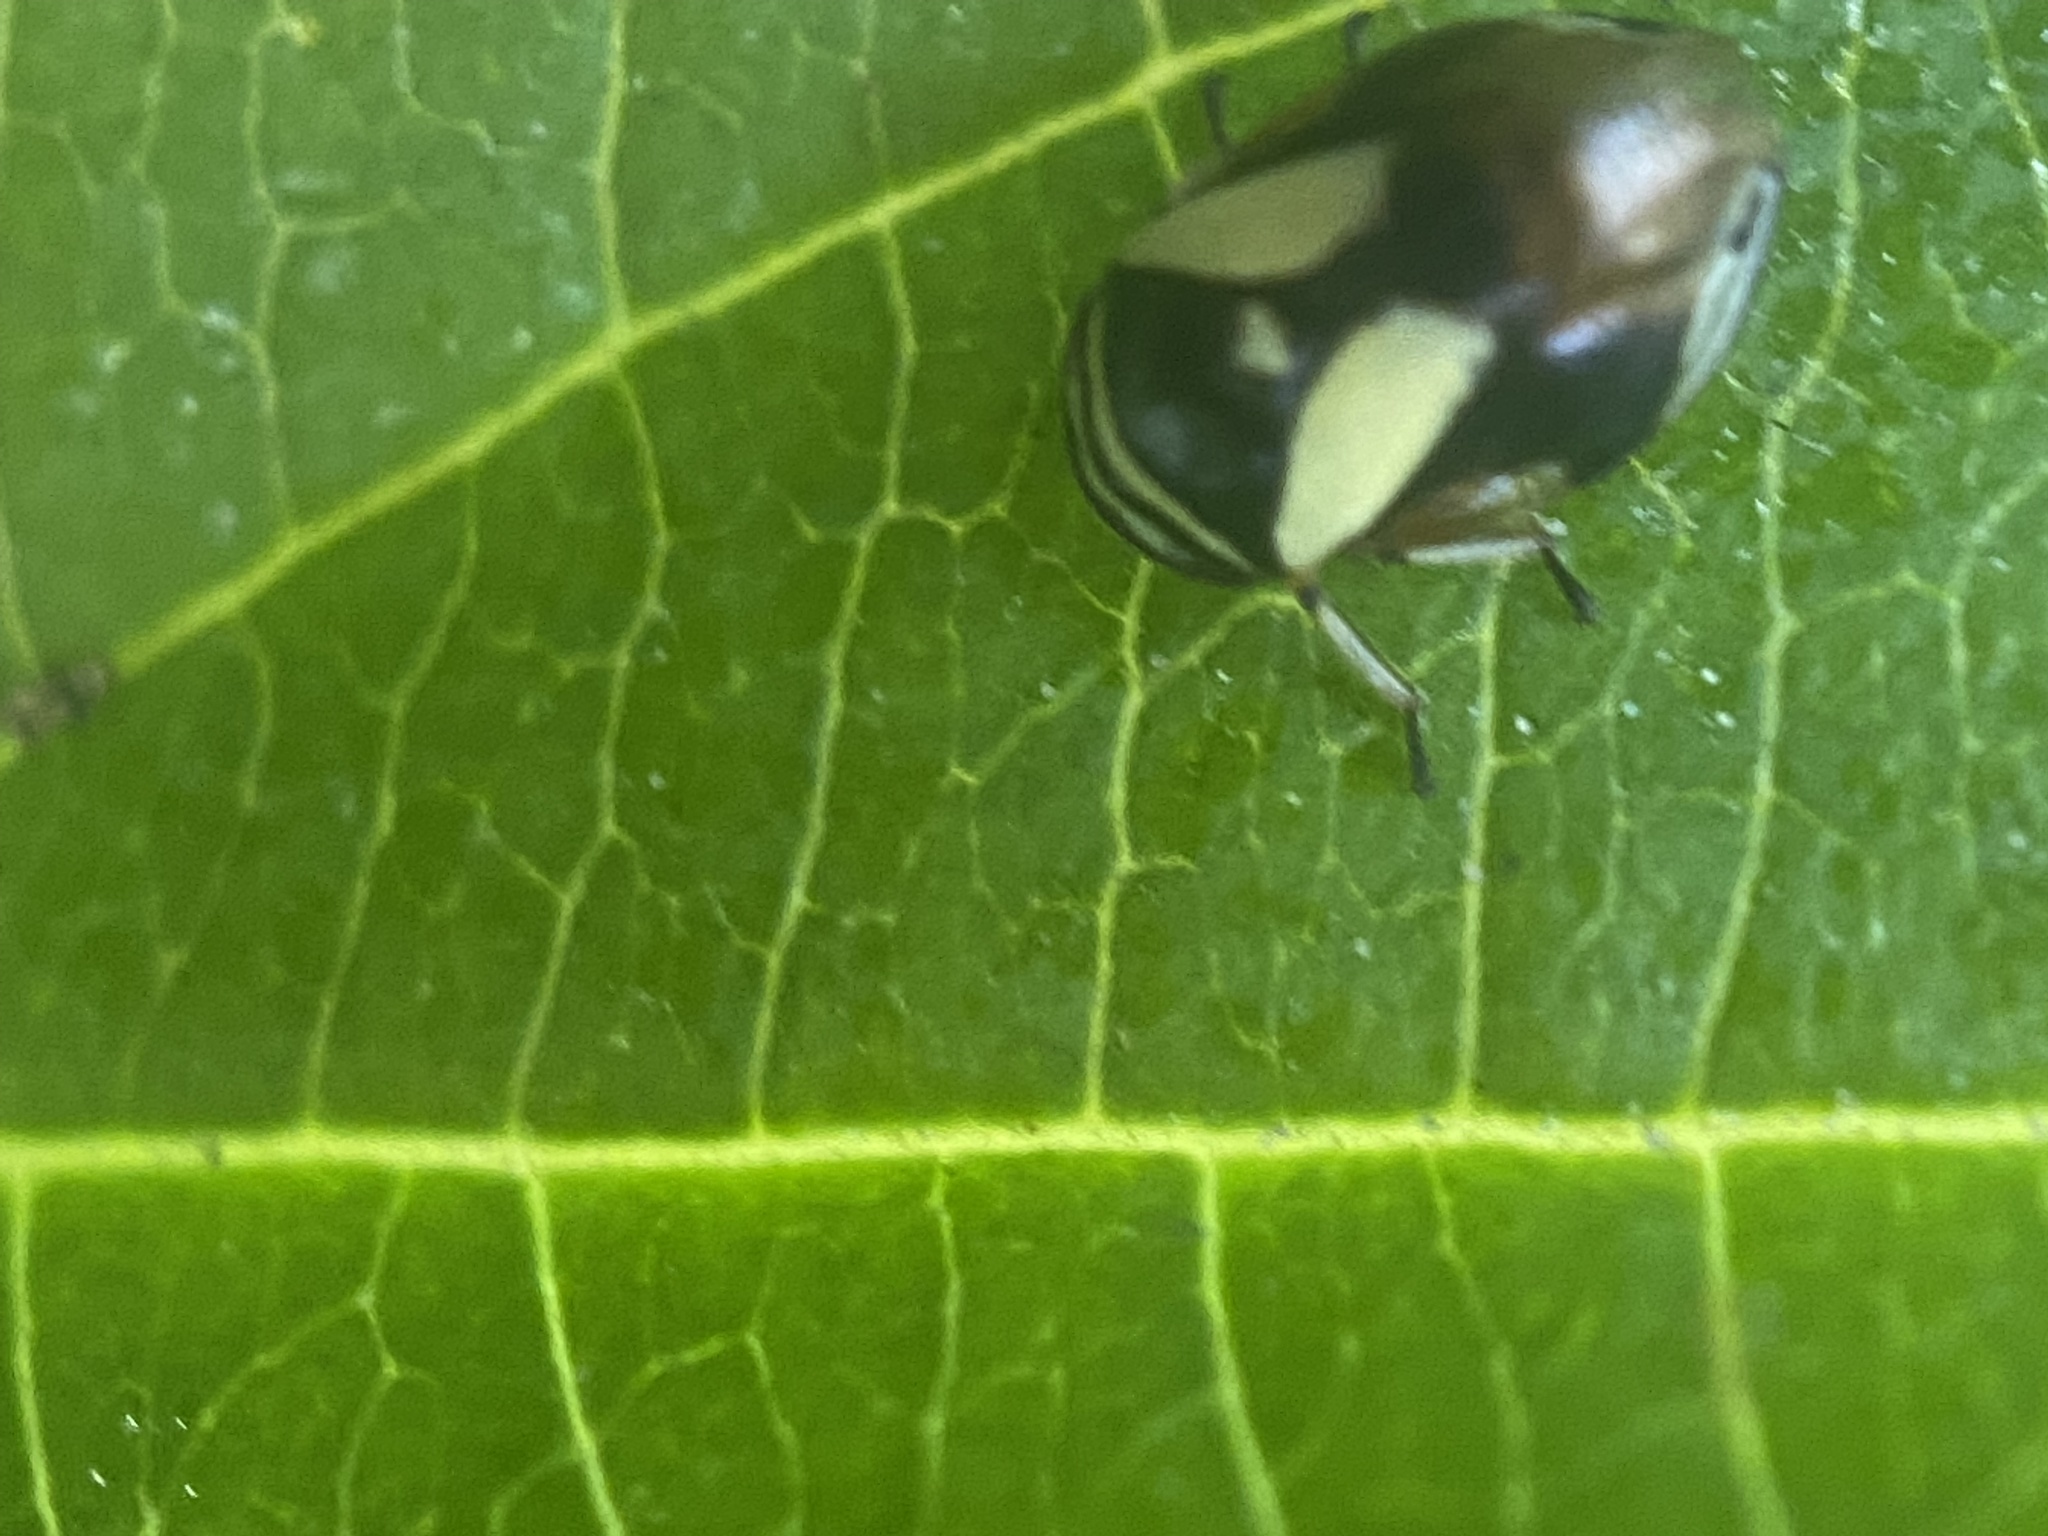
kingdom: Animalia
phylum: Arthropoda
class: Insecta
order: Hemiptera
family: Clastopteridae
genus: Clastoptera
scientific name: Clastoptera proteus
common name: Dogwood spittlebug
